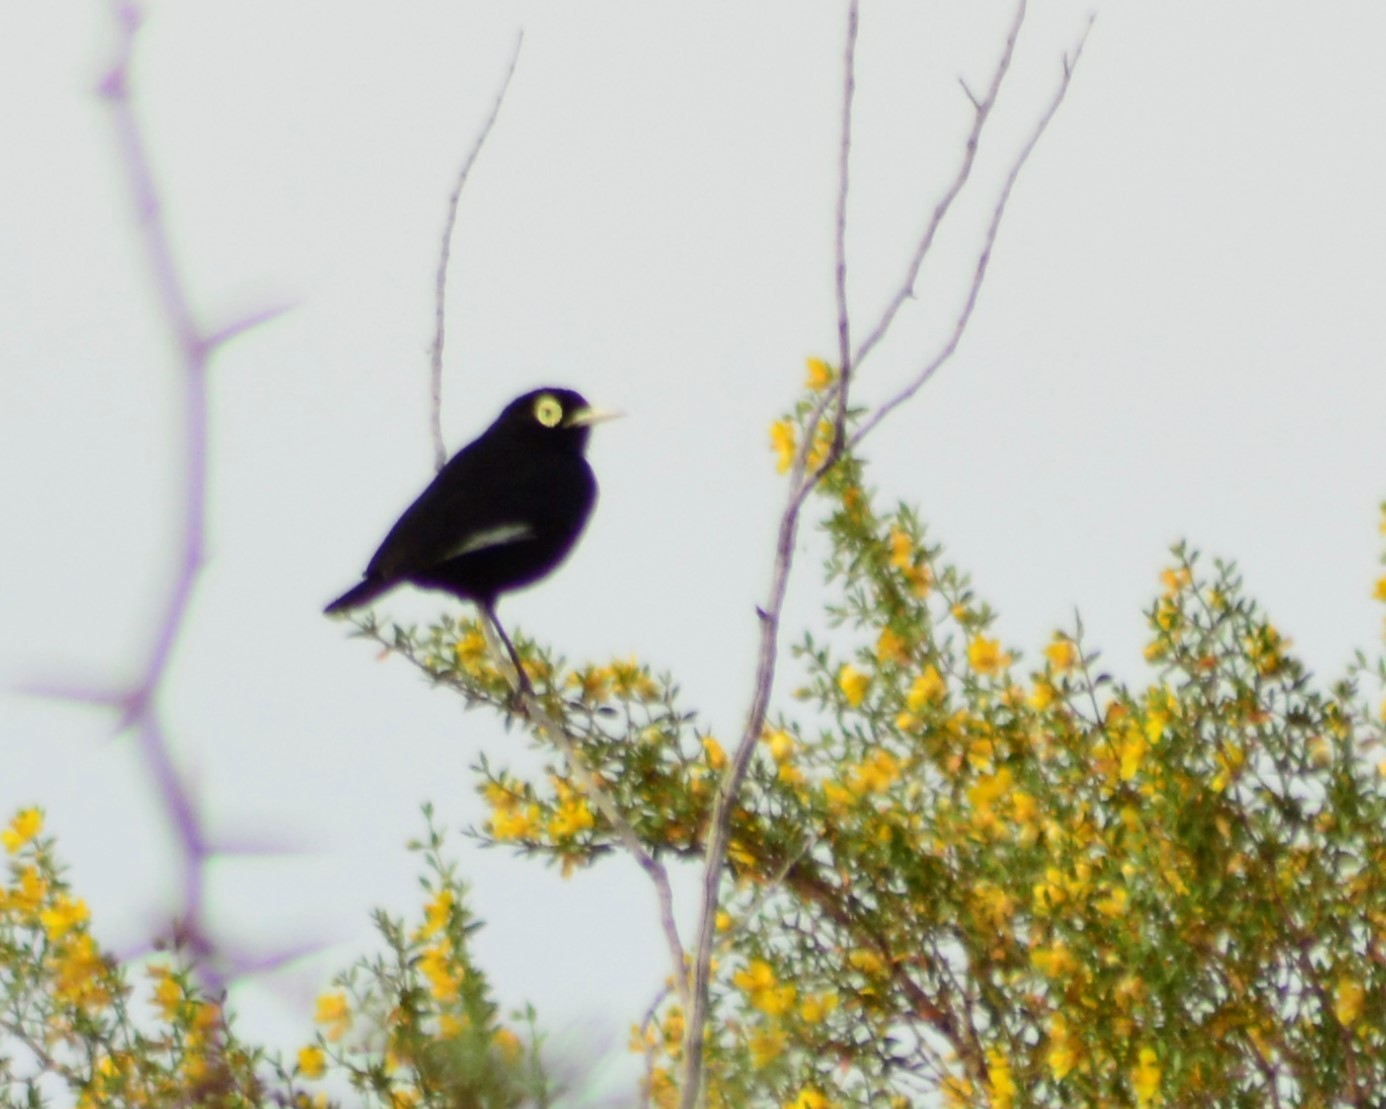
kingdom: Animalia
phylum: Chordata
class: Aves
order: Passeriformes
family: Tyrannidae
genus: Hymenops
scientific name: Hymenops perspicillatus
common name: Spectacled tyrant
